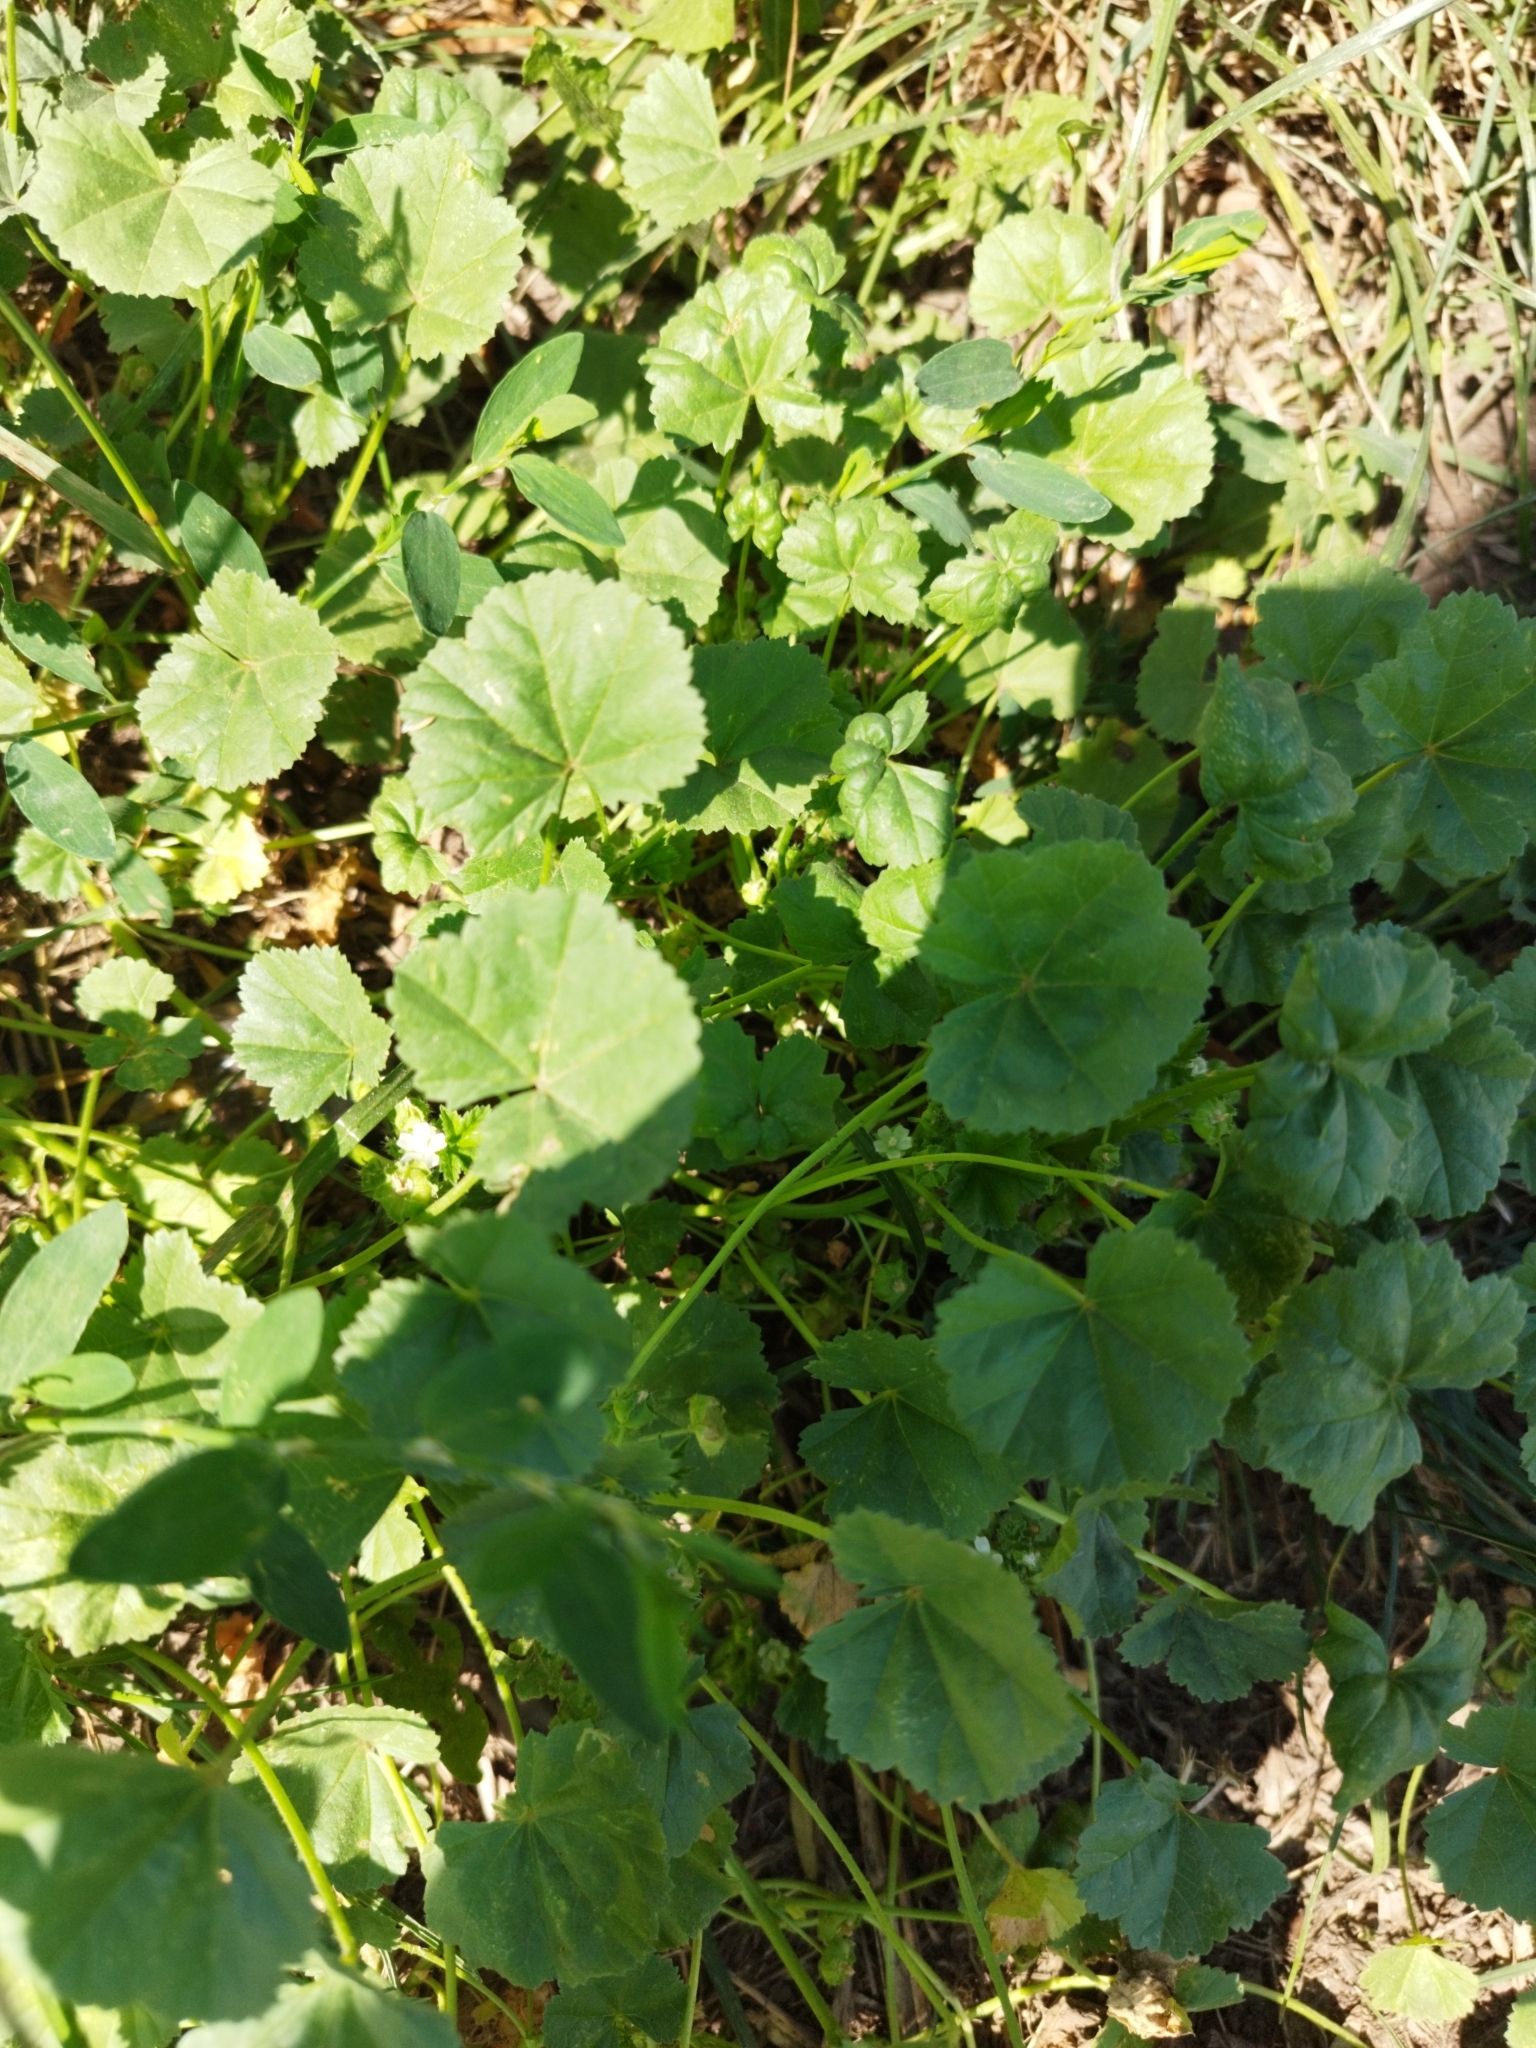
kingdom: Plantae
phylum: Tracheophyta
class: Magnoliopsida
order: Malvales
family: Malvaceae
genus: Malva
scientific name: Malva pusilla
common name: Small mallow
